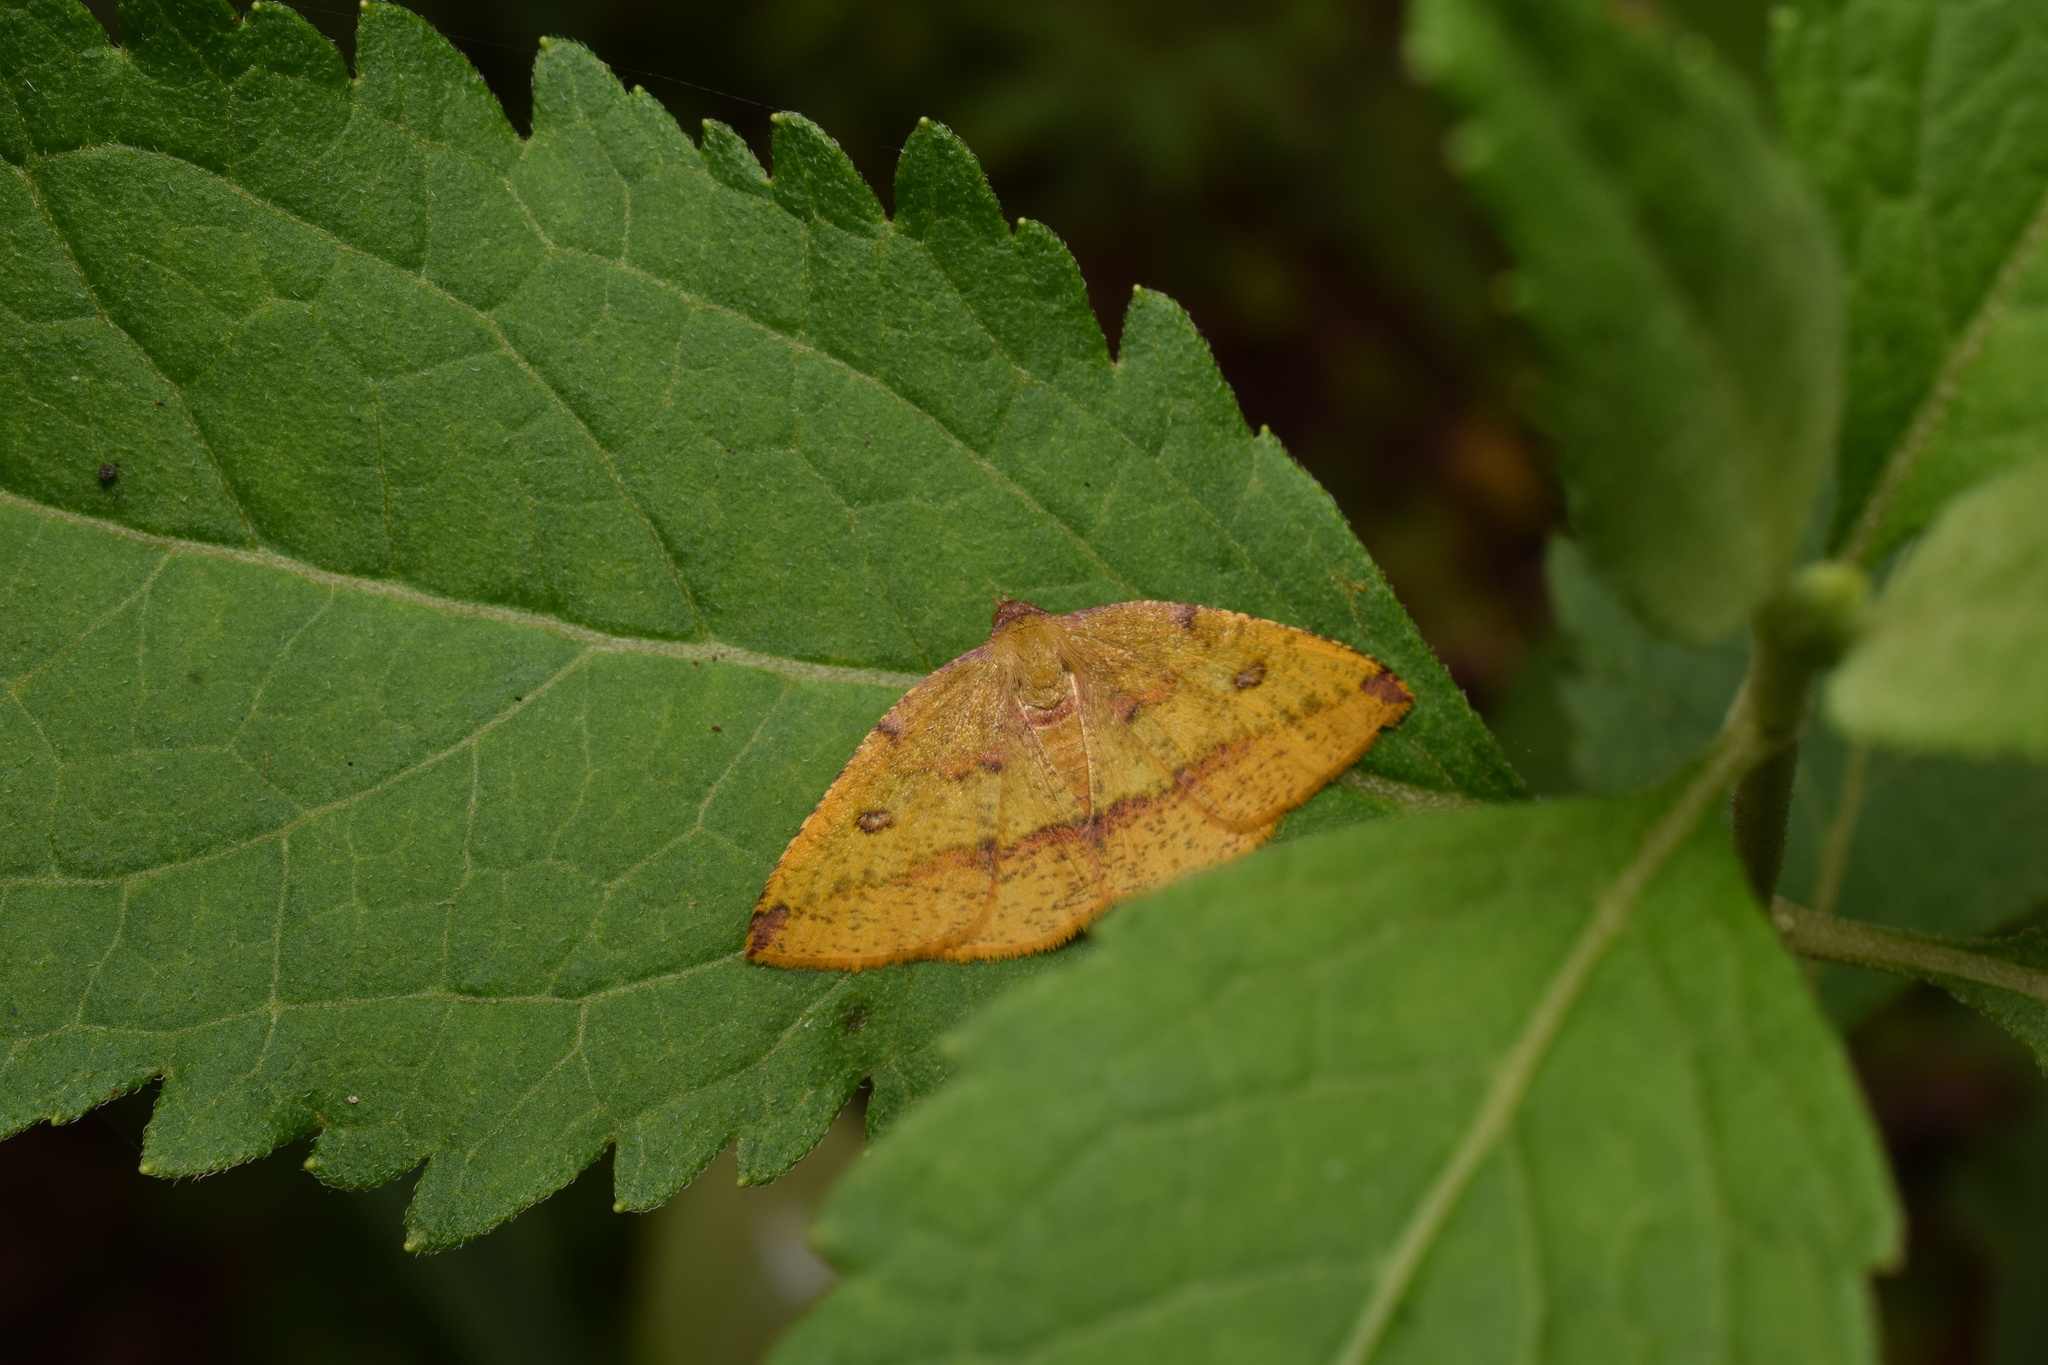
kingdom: Animalia
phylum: Arthropoda
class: Insecta
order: Lepidoptera
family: Geometridae
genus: Heterolocha
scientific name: Heterolocha aristonaria
